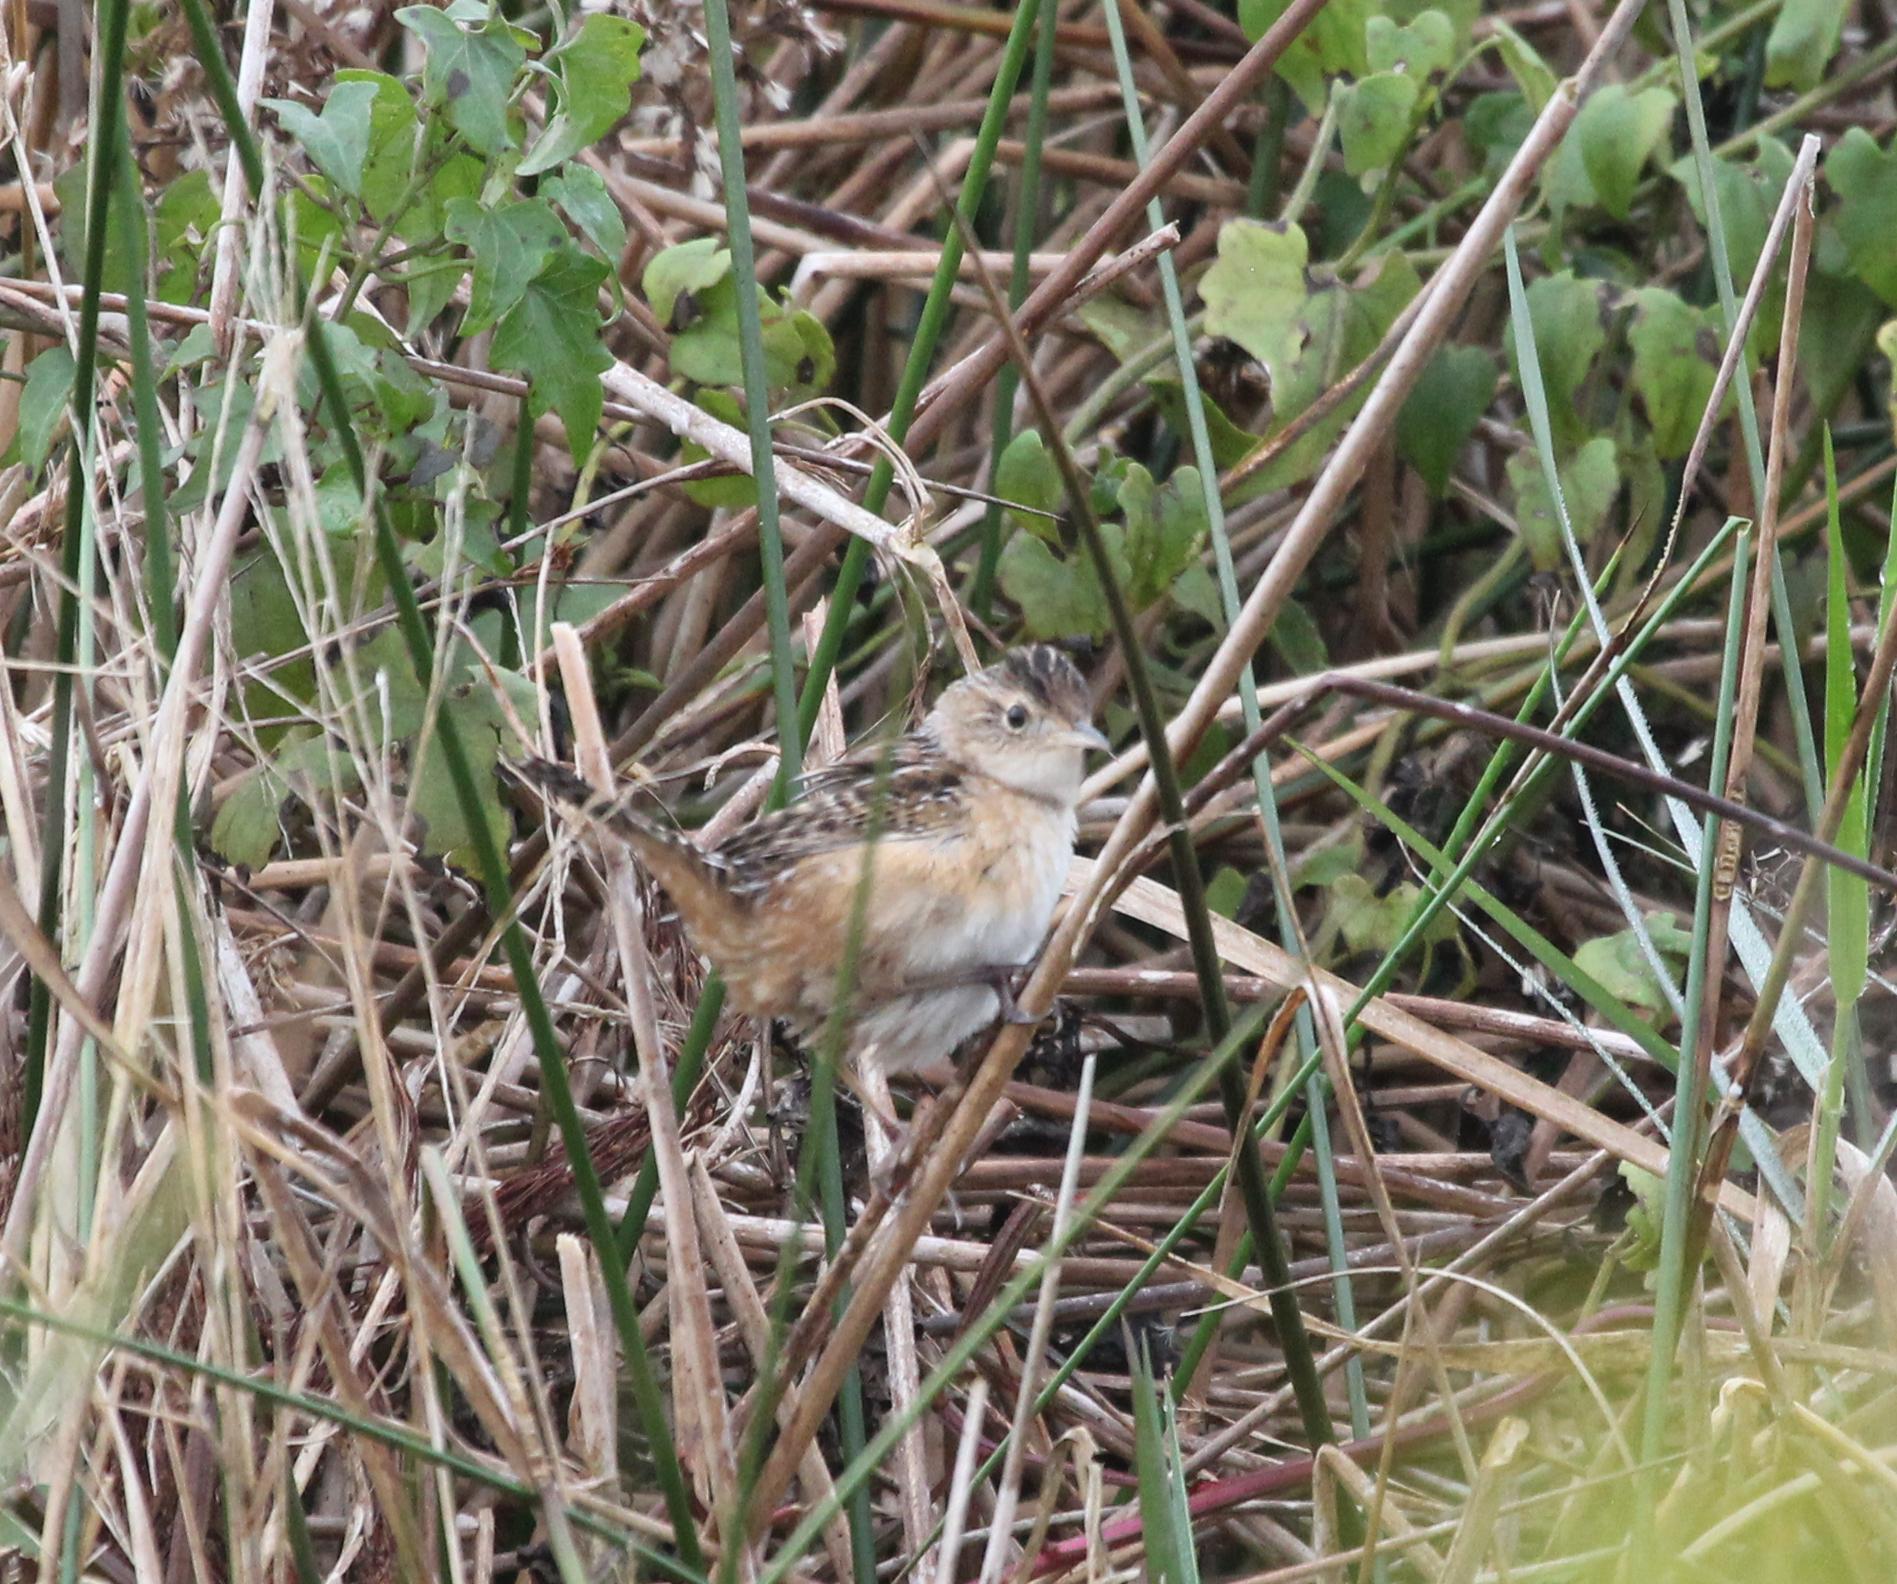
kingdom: Animalia
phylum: Chordata
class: Aves
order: Passeriformes
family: Troglodytidae
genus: Cistothorus
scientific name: Cistothorus platensis
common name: Sedge wren
